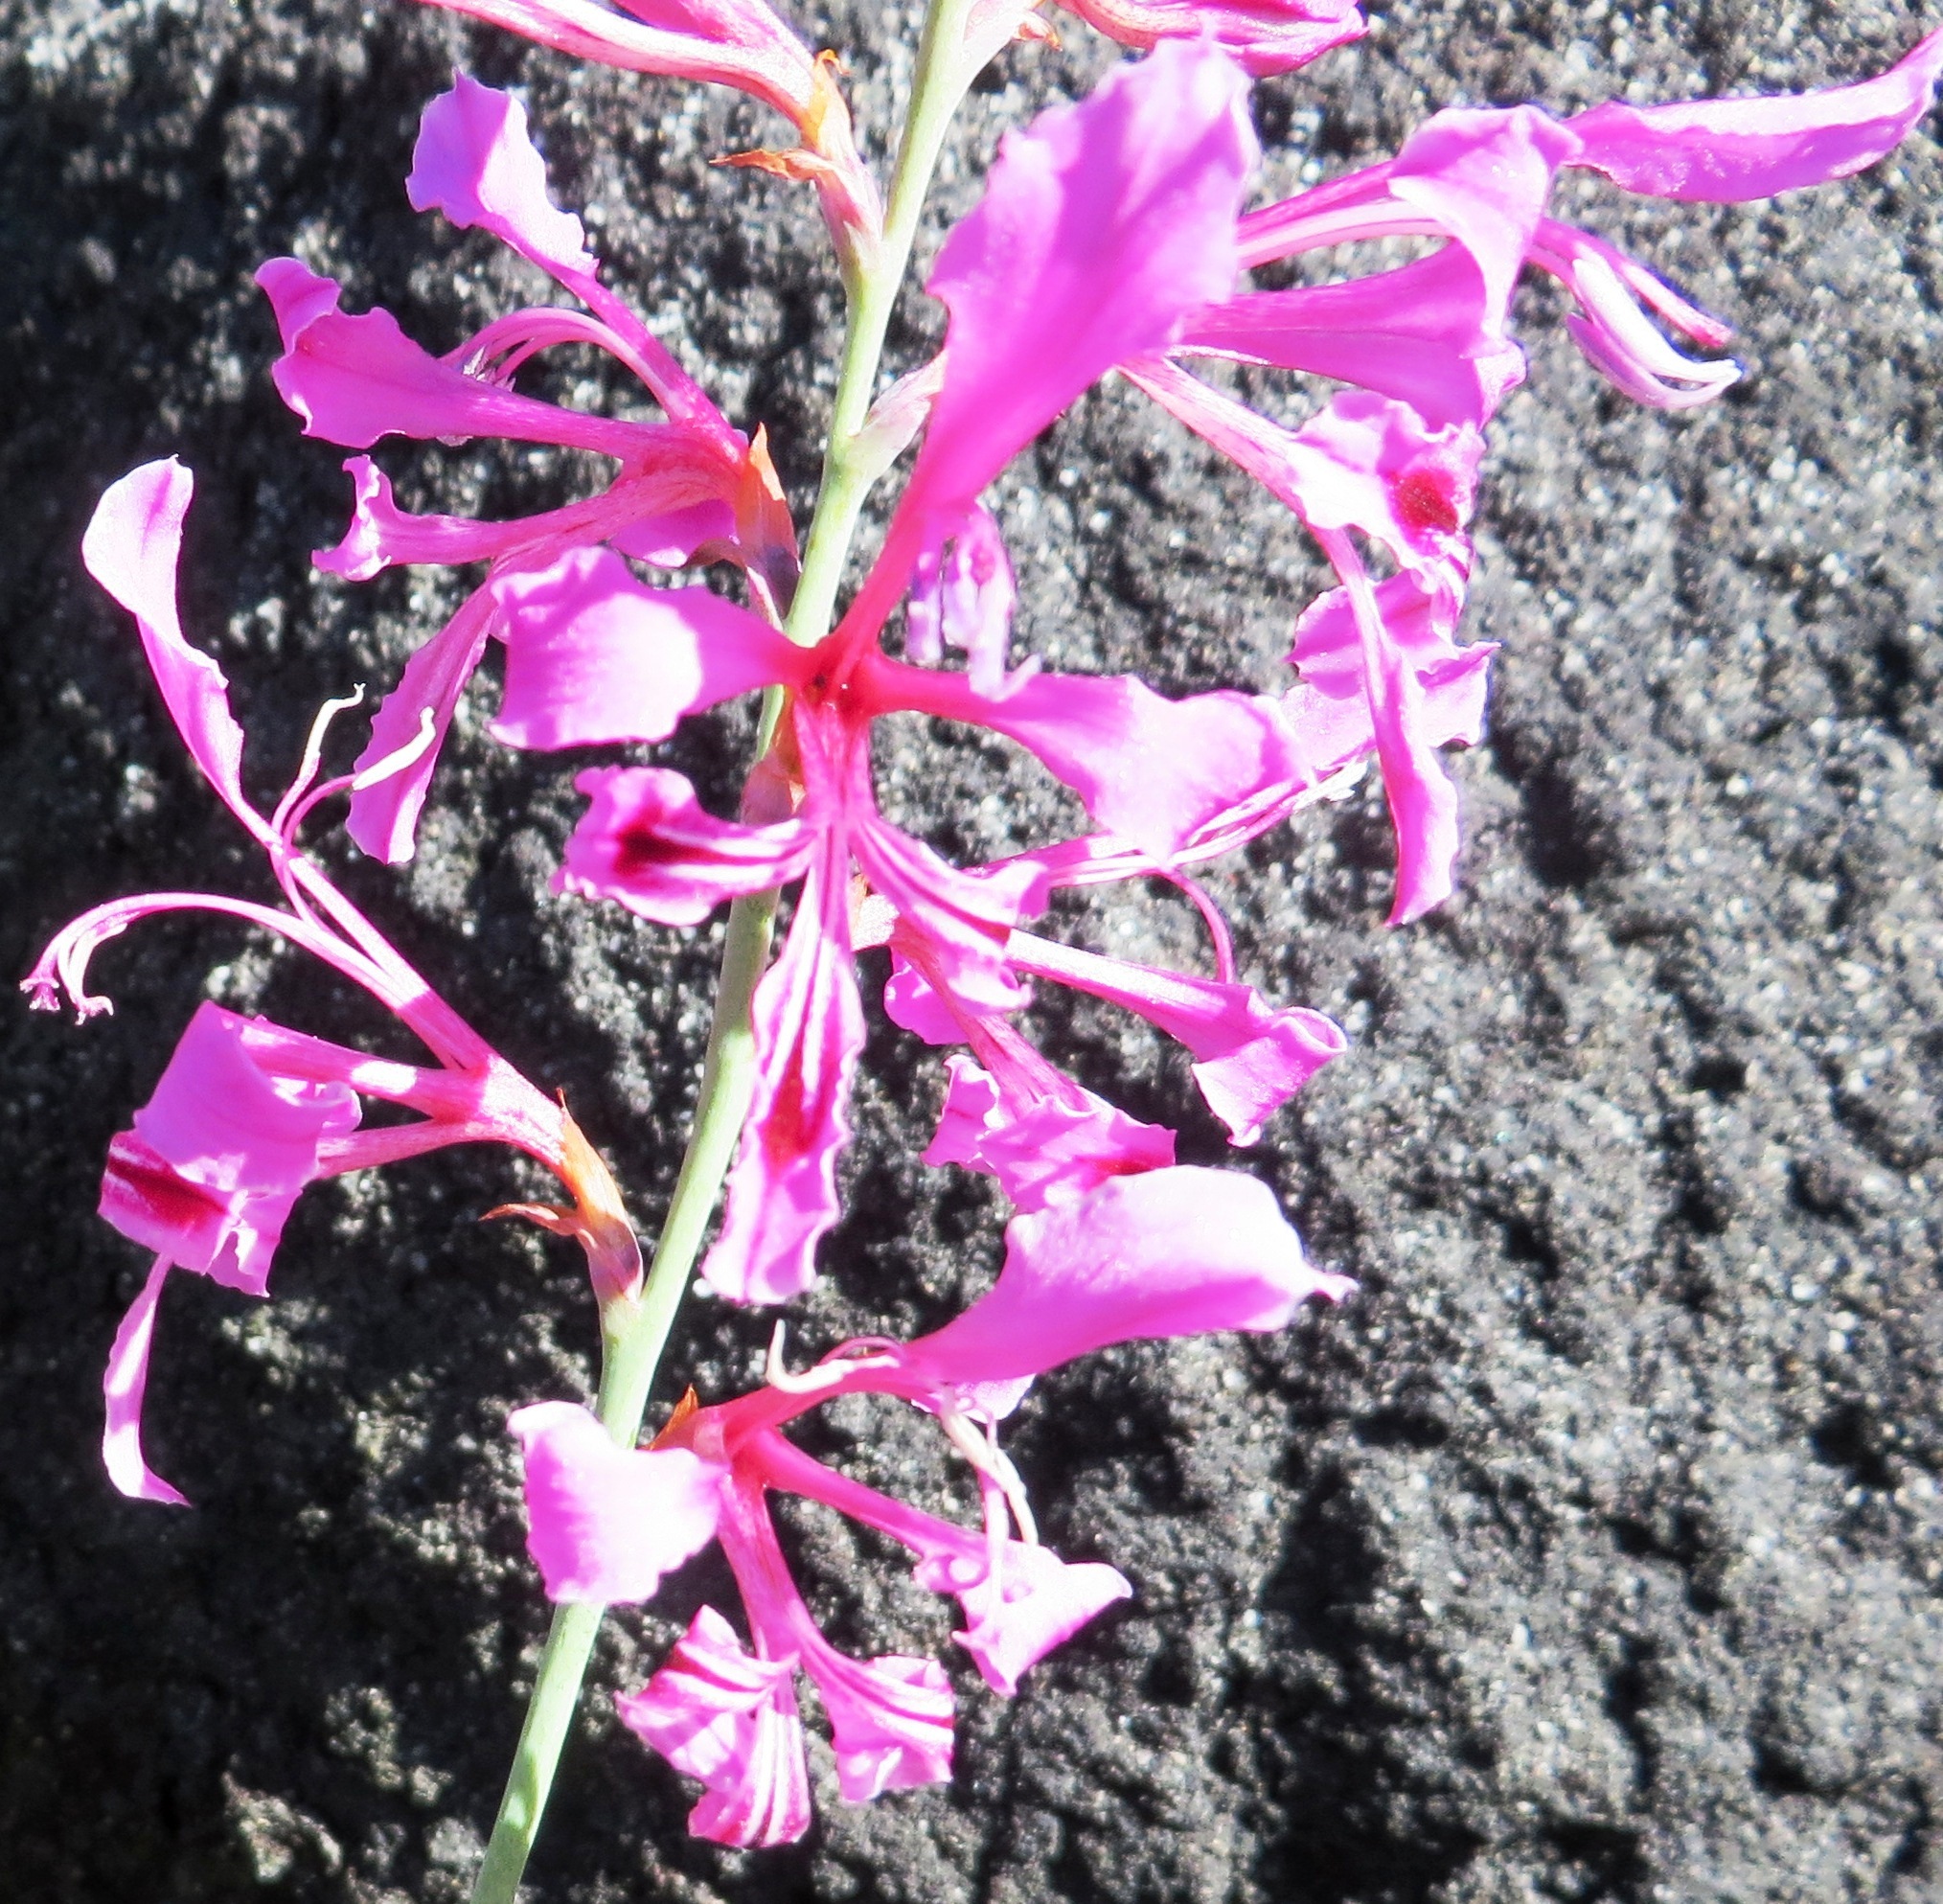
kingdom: Plantae
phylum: Tracheophyta
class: Liliopsida
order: Asparagales
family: Iridaceae
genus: Tritoniopsis
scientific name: Tritoniopsis lata
